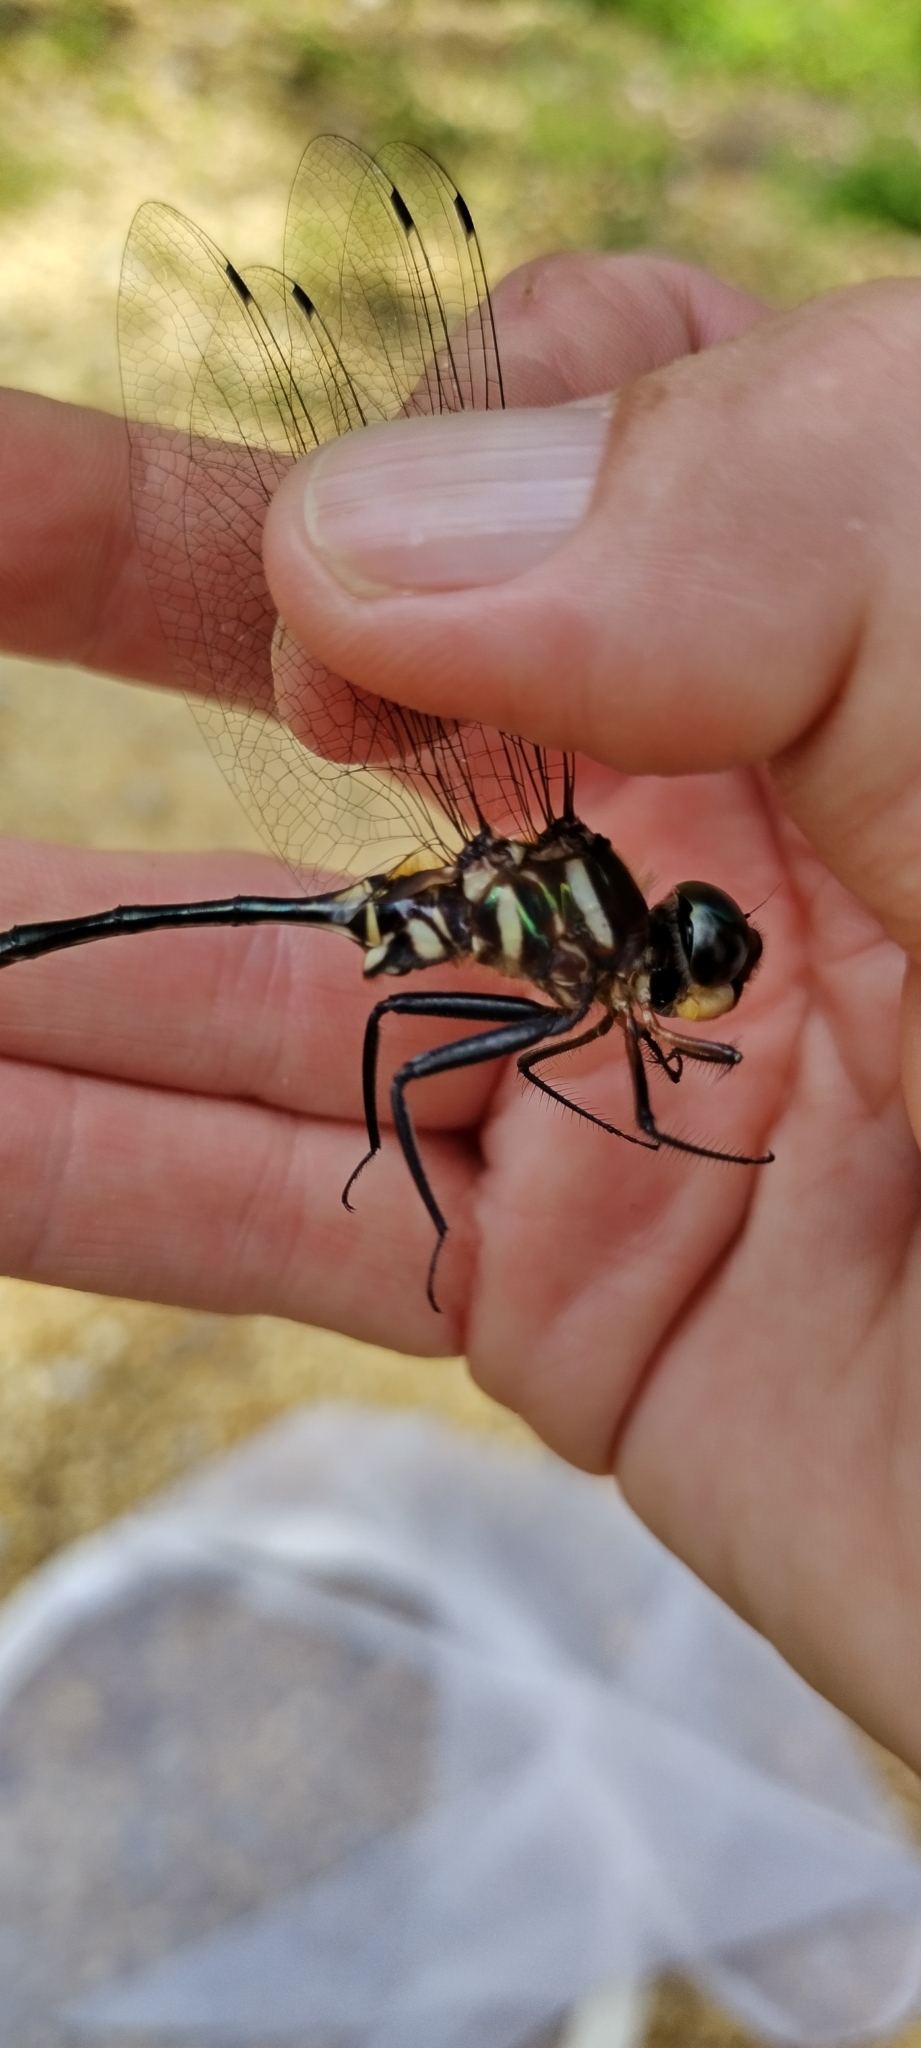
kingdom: Animalia
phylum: Arthropoda
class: Insecta
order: Odonata
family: Corduliidae
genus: Somatochlora
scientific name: Somatochlora provocans
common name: Treetop emerald
